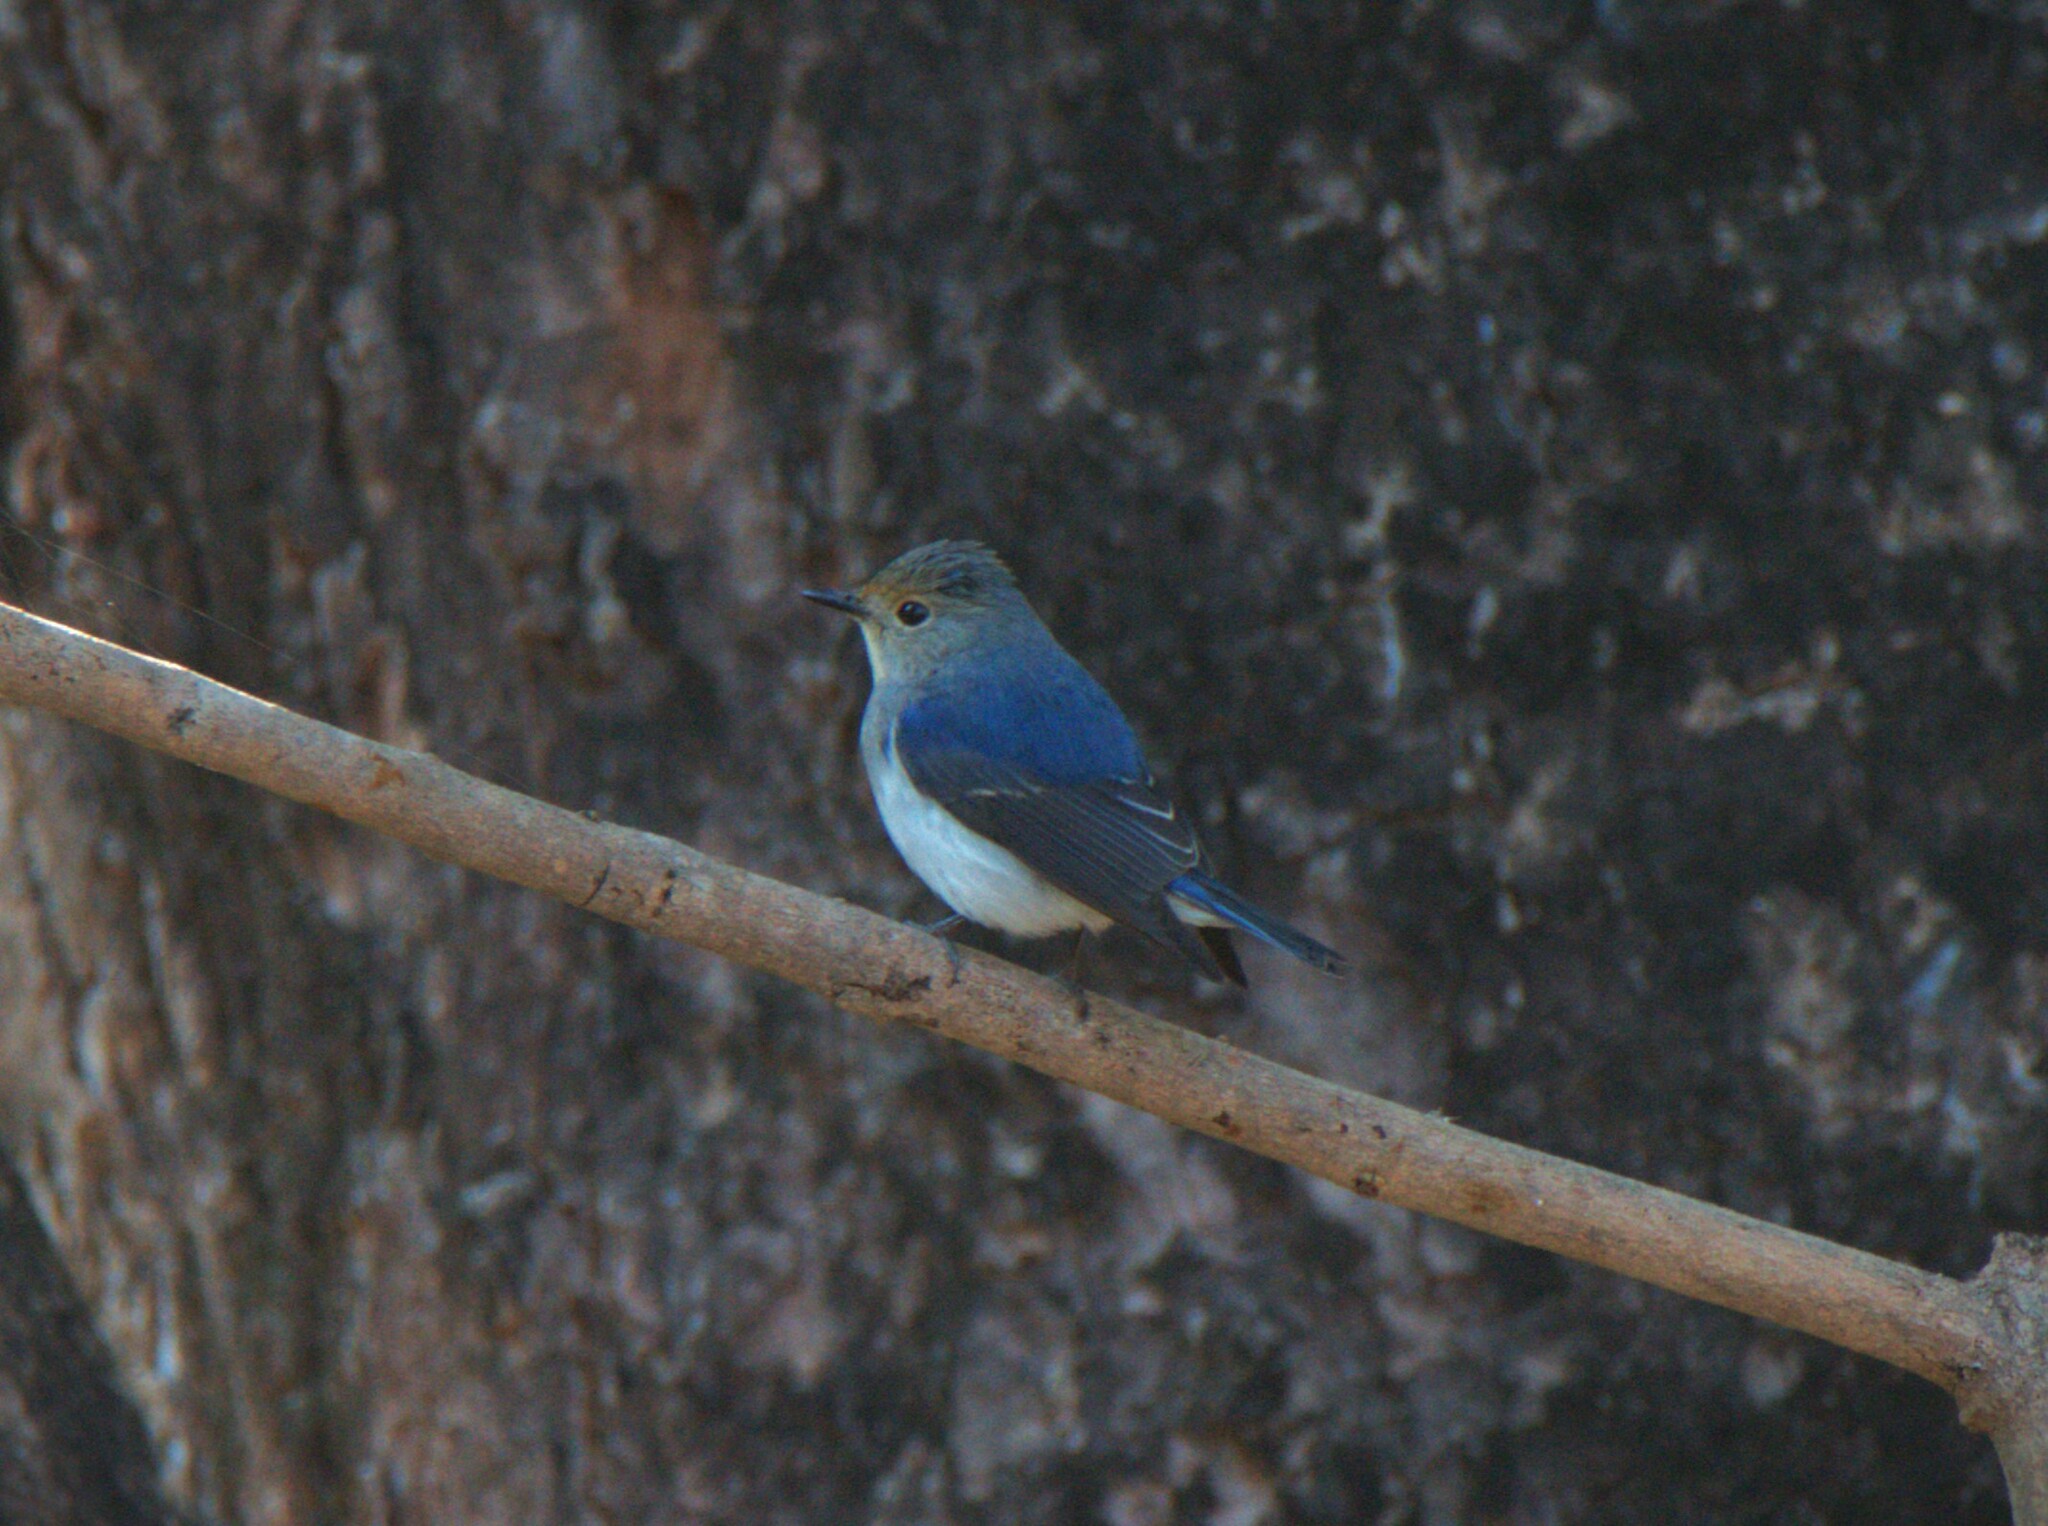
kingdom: Animalia
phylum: Chordata
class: Aves
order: Passeriformes
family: Muscicapidae
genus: Ficedula
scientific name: Ficedula superciliaris
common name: Ultramarine flycatcher
